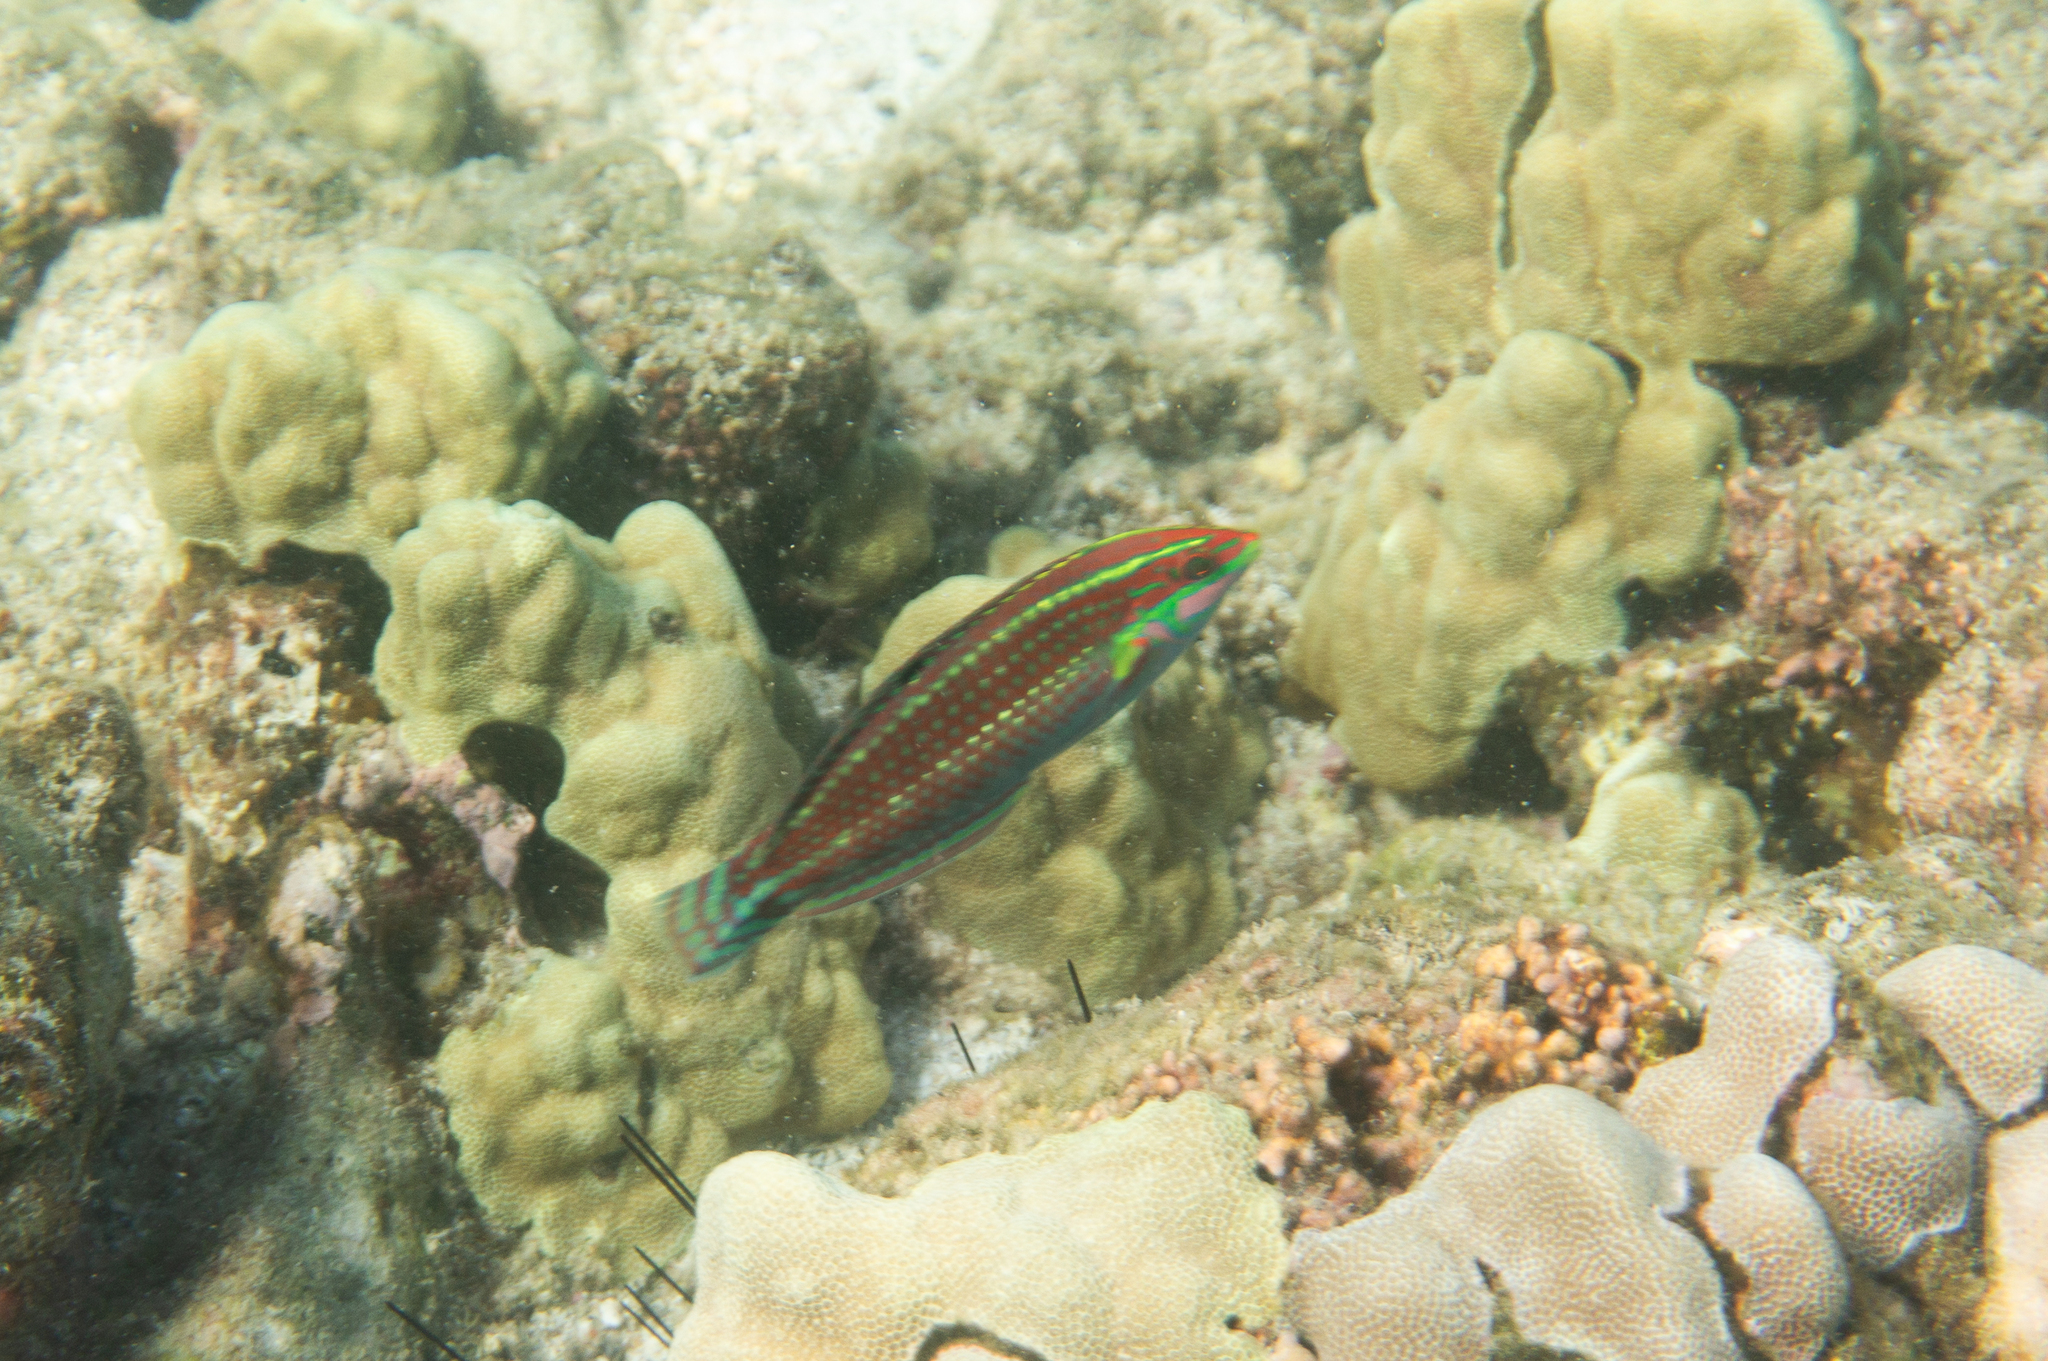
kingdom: Animalia
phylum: Chordata
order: Perciformes
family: Labridae
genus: Halichoeres
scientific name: Halichoeres ornatissimus
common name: Ornamented wrasse
